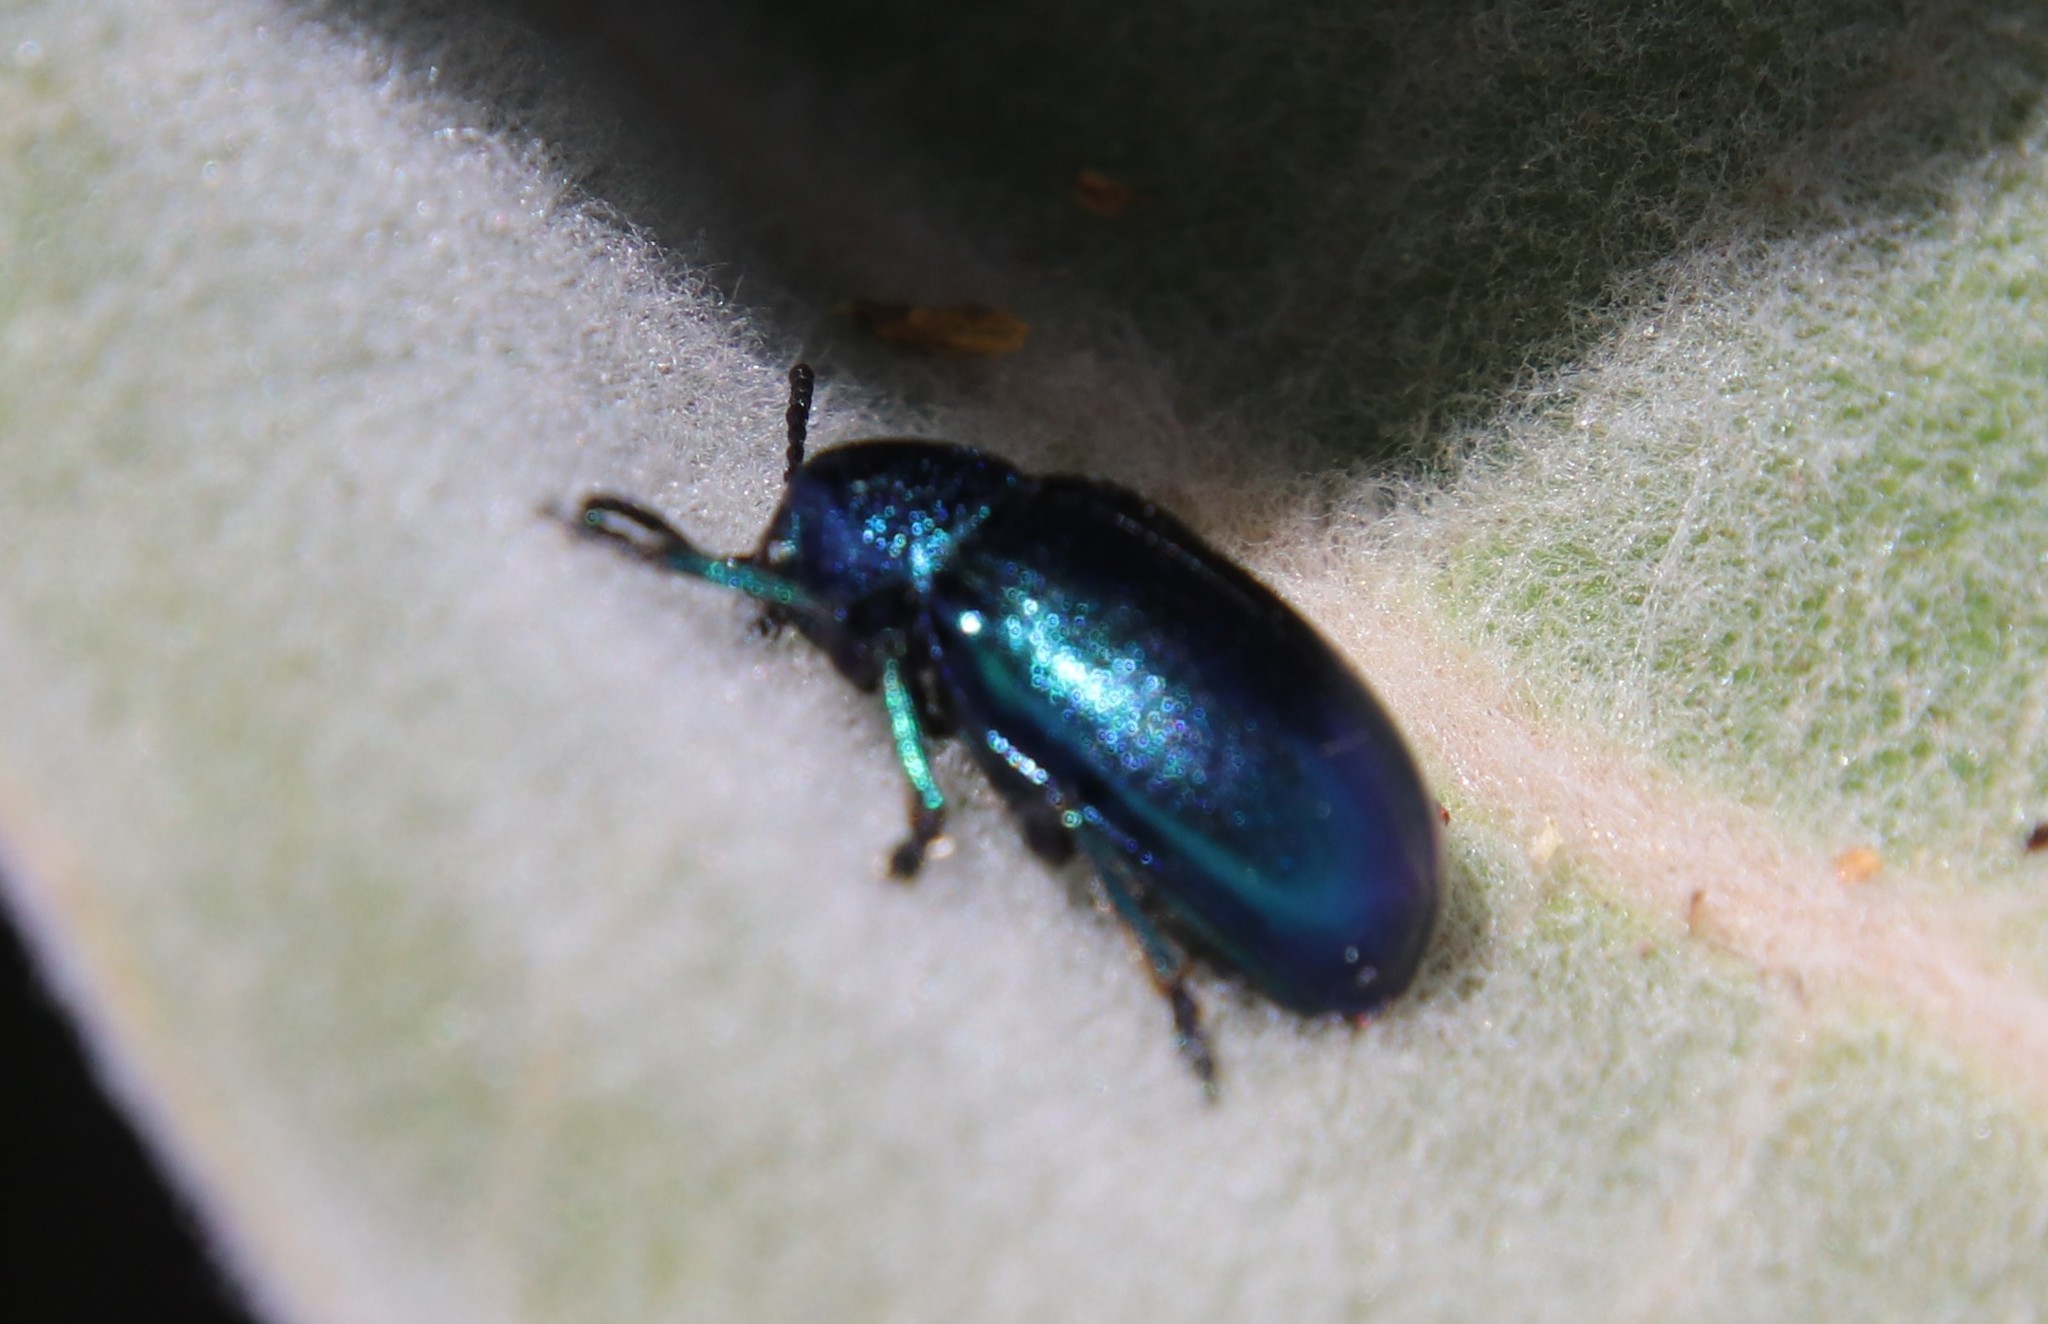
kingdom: Animalia
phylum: Arthropoda
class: Insecta
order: Coleoptera
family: Chrysomelidae
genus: Chrysochus
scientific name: Chrysochus cobaltinus
